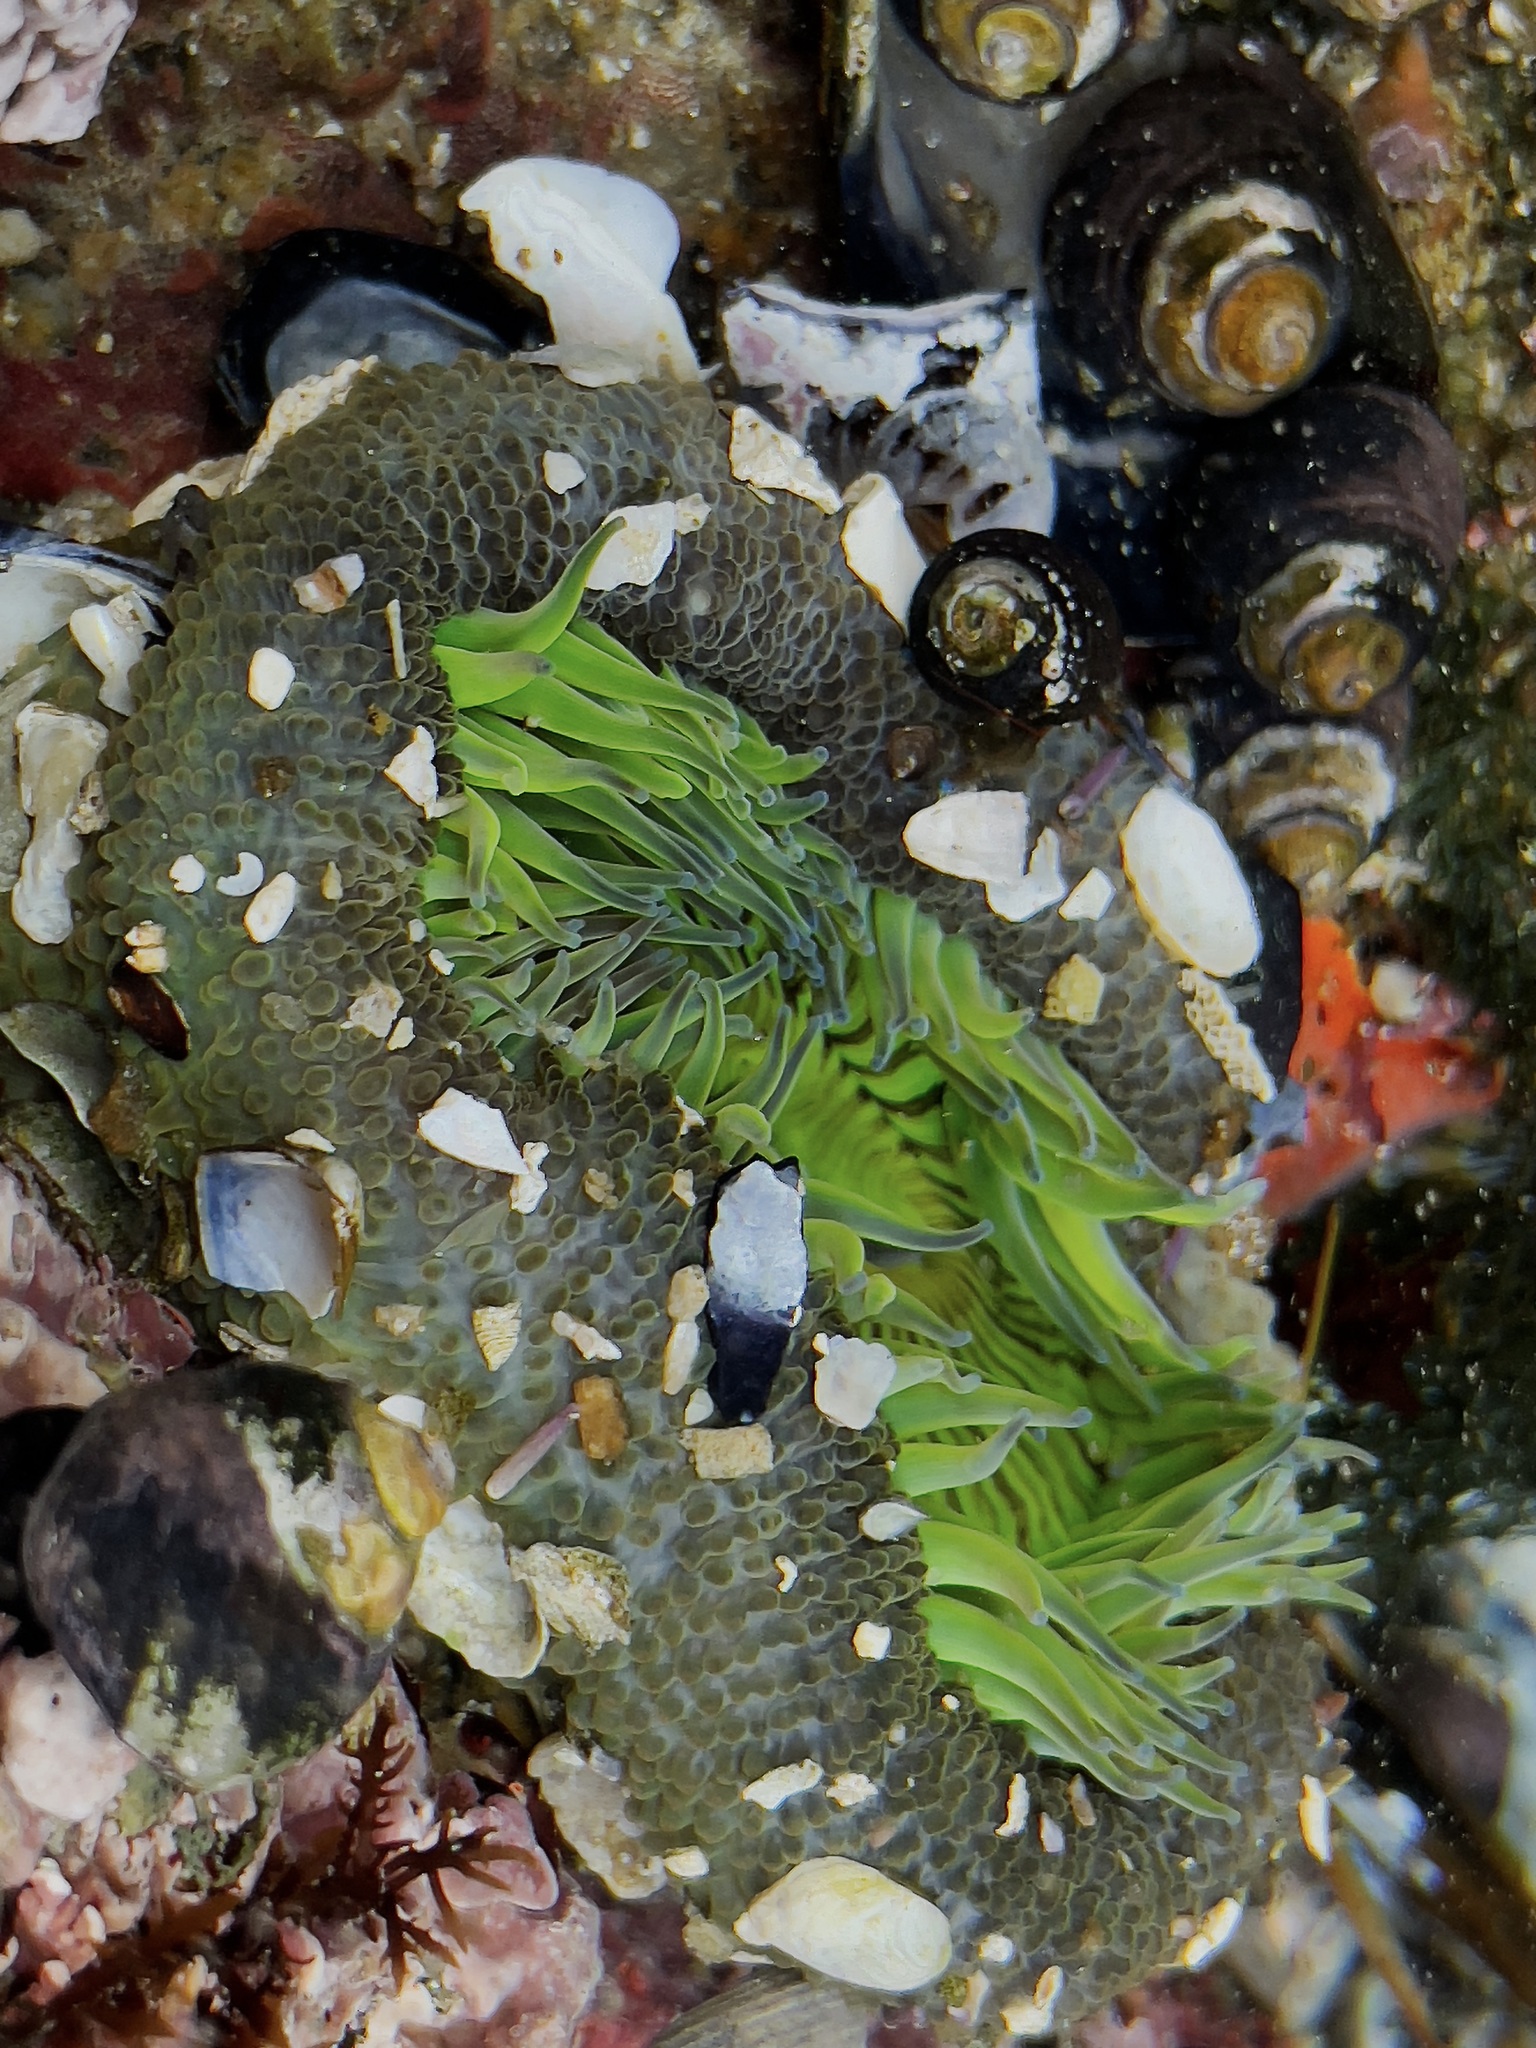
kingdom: Animalia
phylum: Cnidaria
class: Anthozoa
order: Actiniaria
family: Actiniidae
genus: Anthopleura
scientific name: Anthopleura sola
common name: Sun anemone
